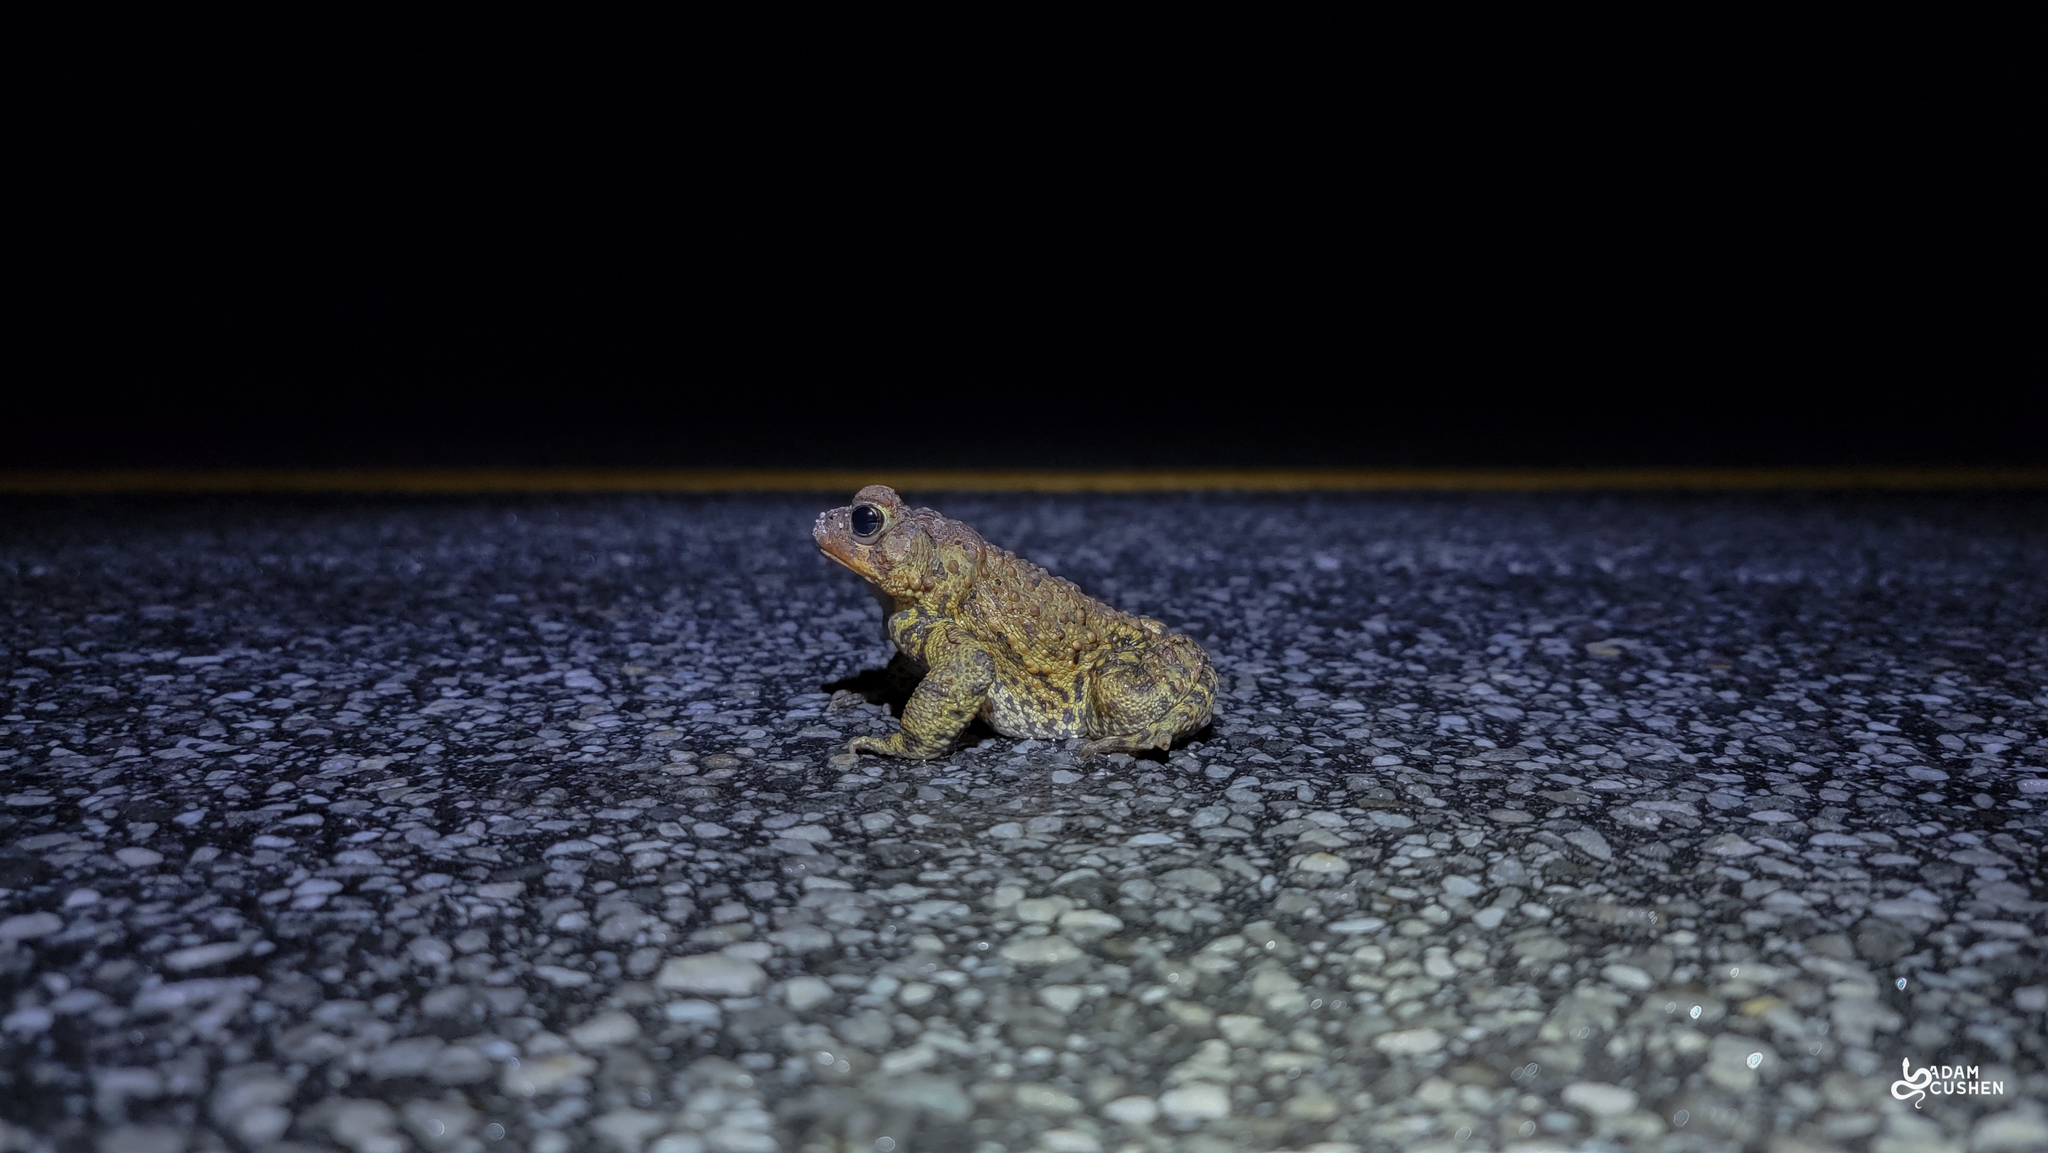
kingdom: Animalia
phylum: Chordata
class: Amphibia
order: Anura
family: Bufonidae
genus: Anaxyrus
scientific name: Anaxyrus americanus
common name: American toad
